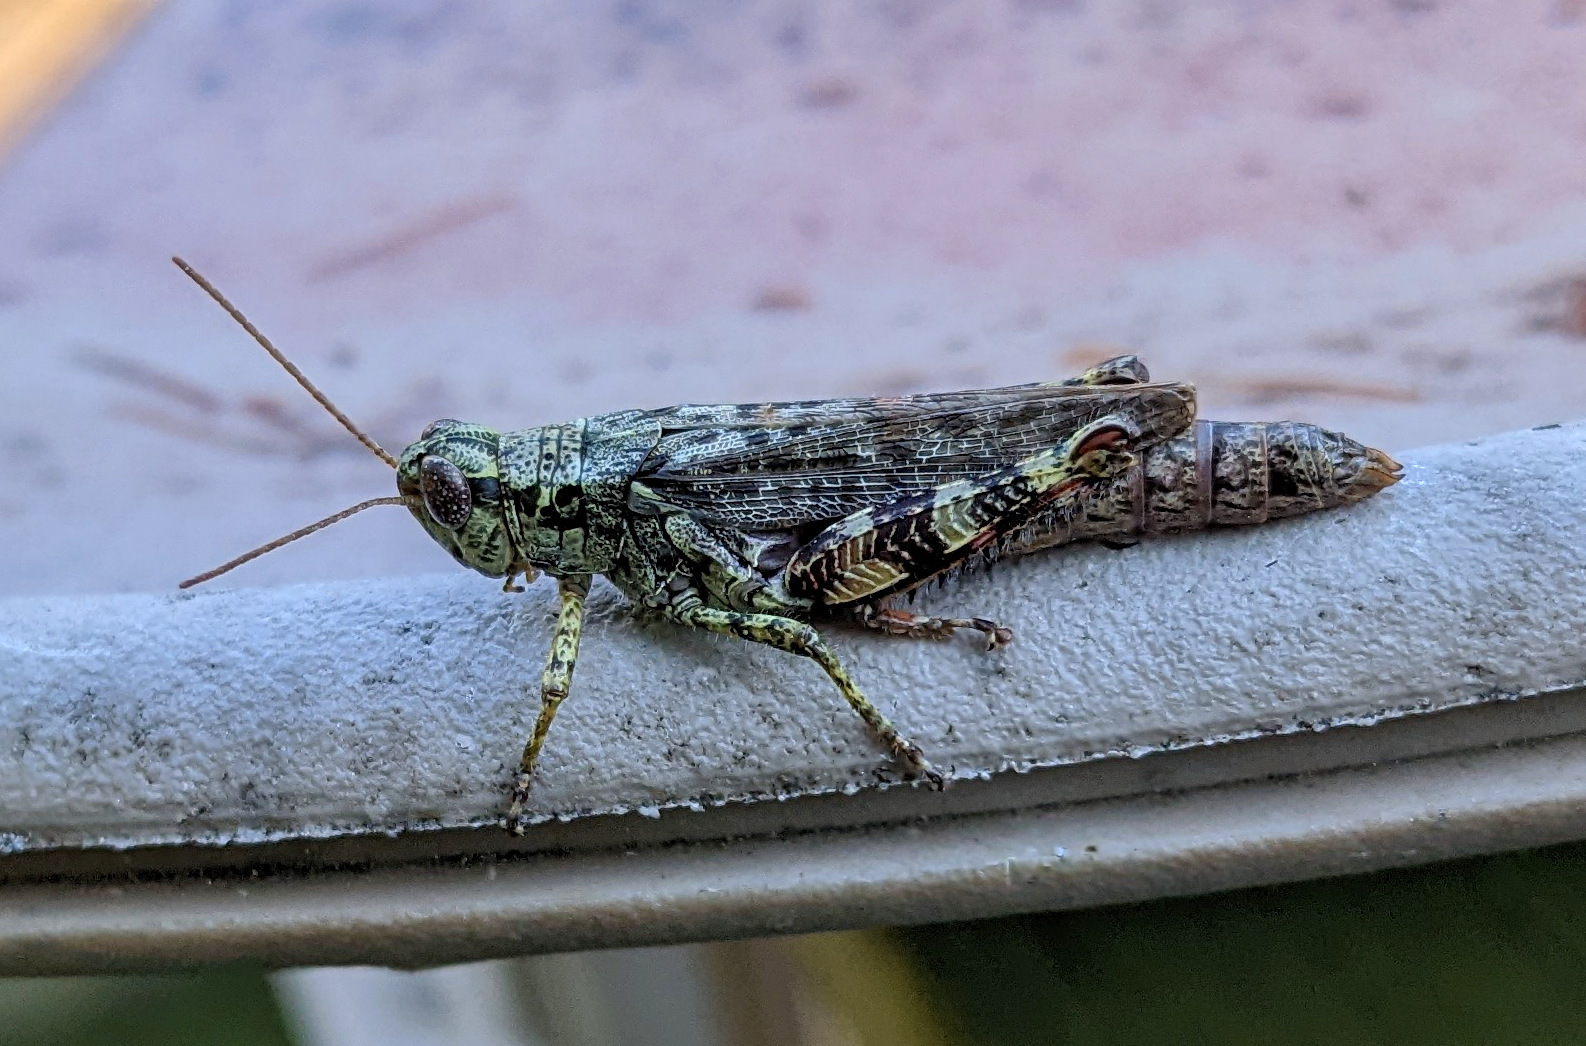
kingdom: Animalia
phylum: Arthropoda
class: Insecta
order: Orthoptera
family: Acrididae
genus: Melanoplus
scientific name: Melanoplus punctulatus
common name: Pine-tree spur-throat grasshopper
